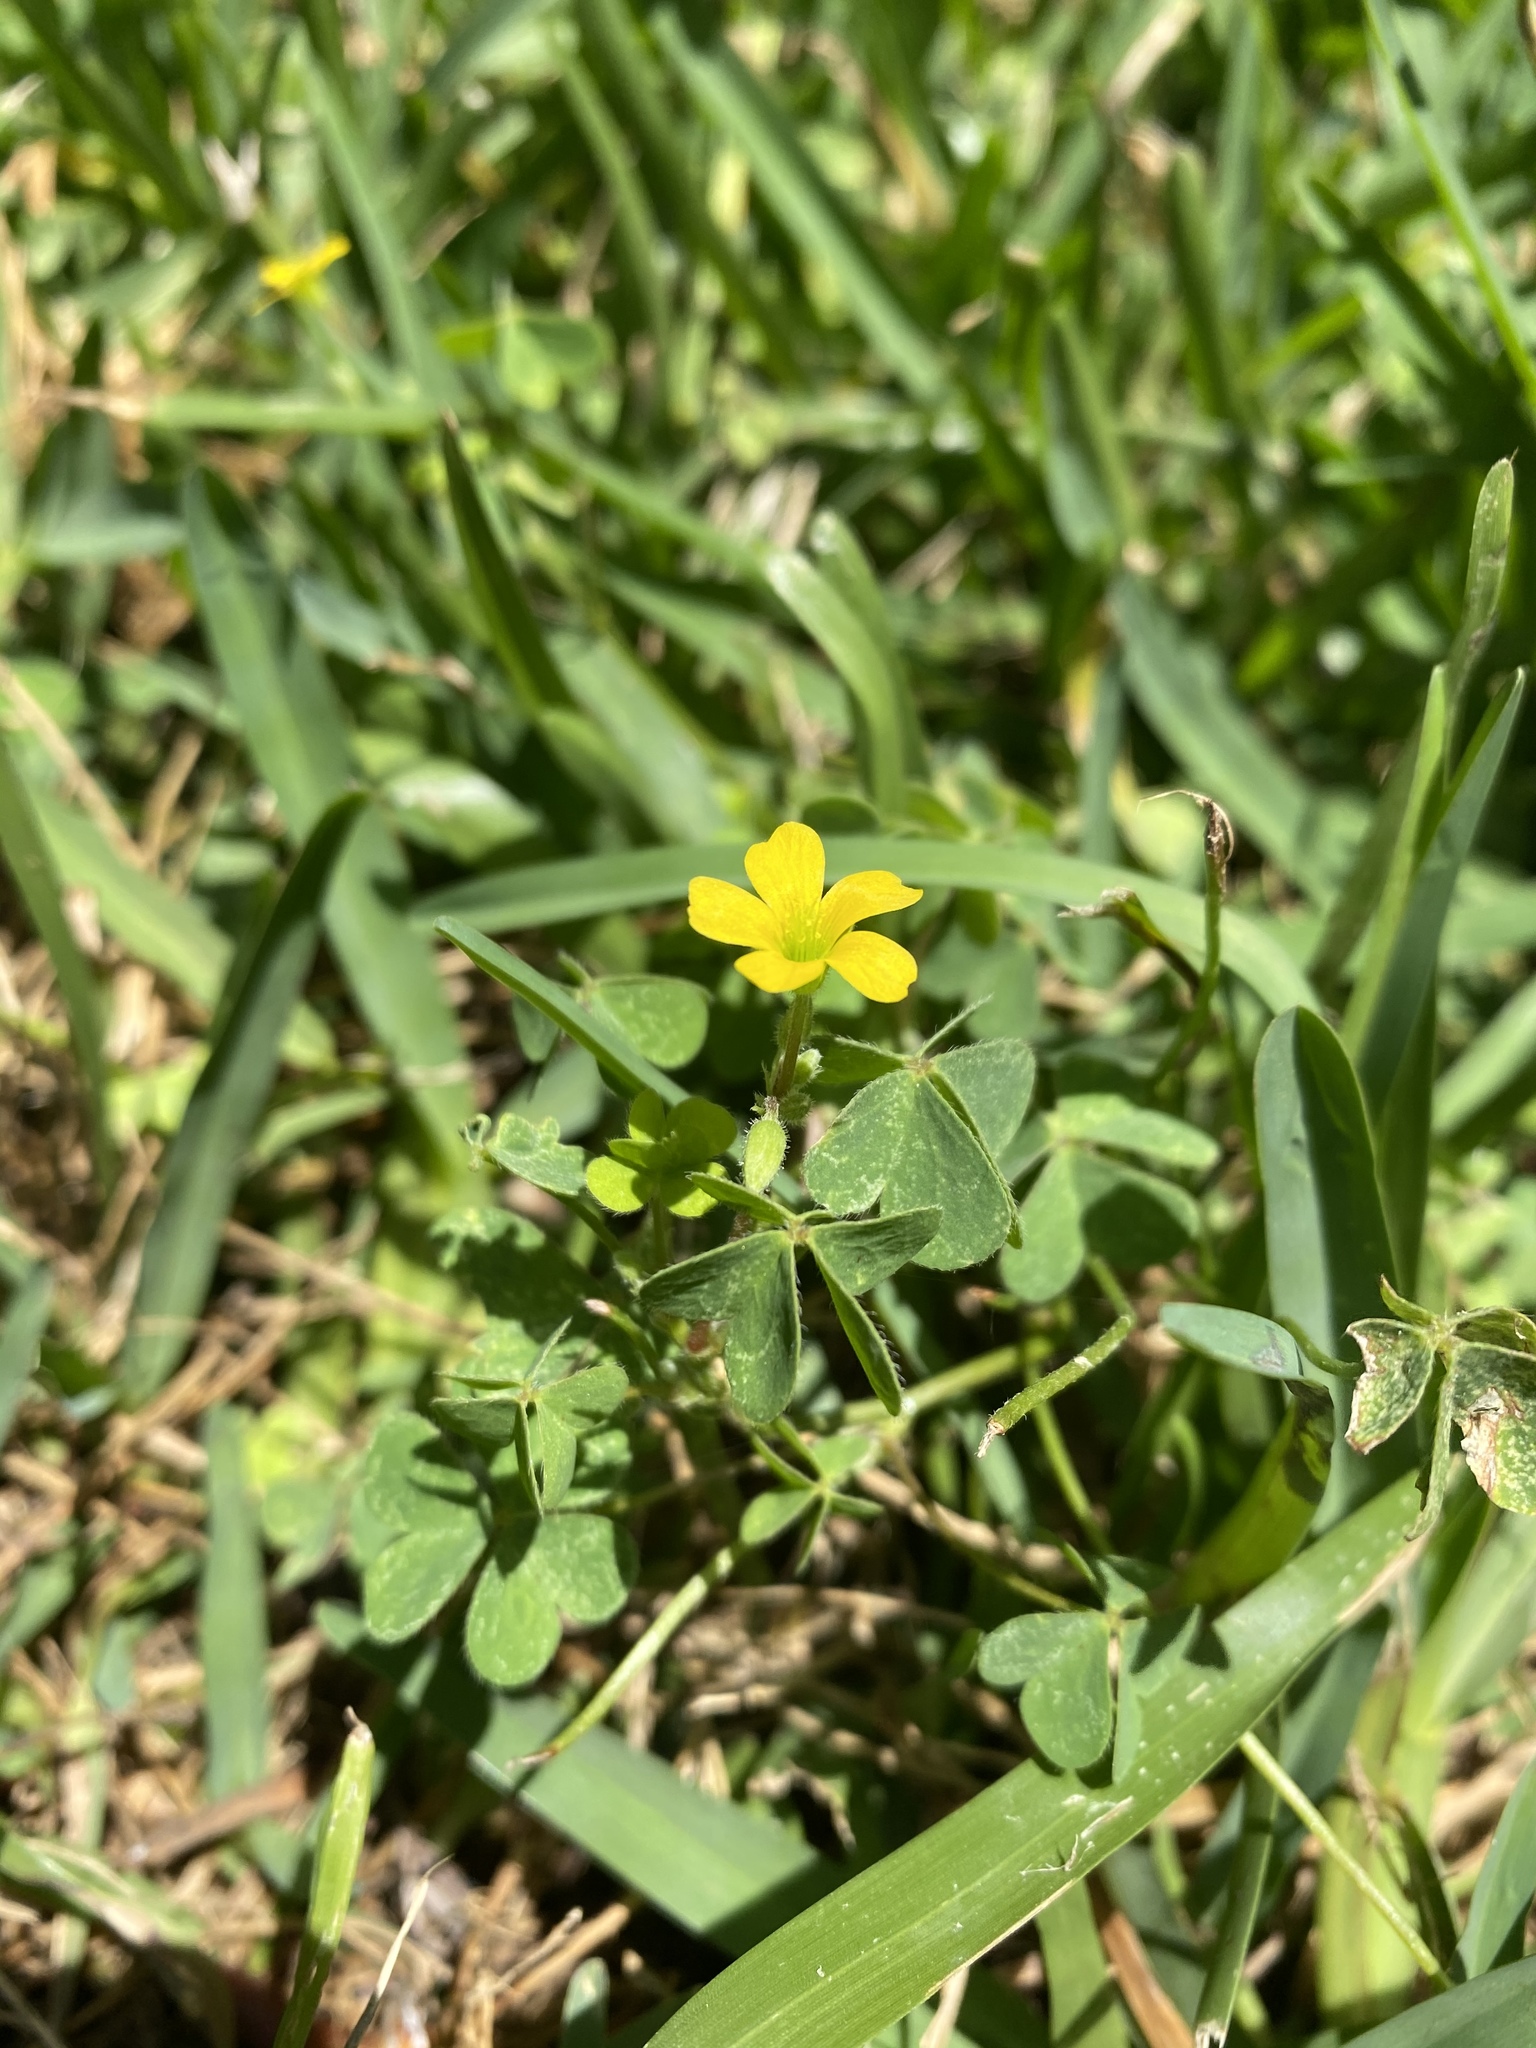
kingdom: Plantae
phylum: Tracheophyta
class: Magnoliopsida
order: Oxalidales
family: Oxalidaceae
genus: Oxalis
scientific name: Oxalis corniculata
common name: Procumbent yellow-sorrel
